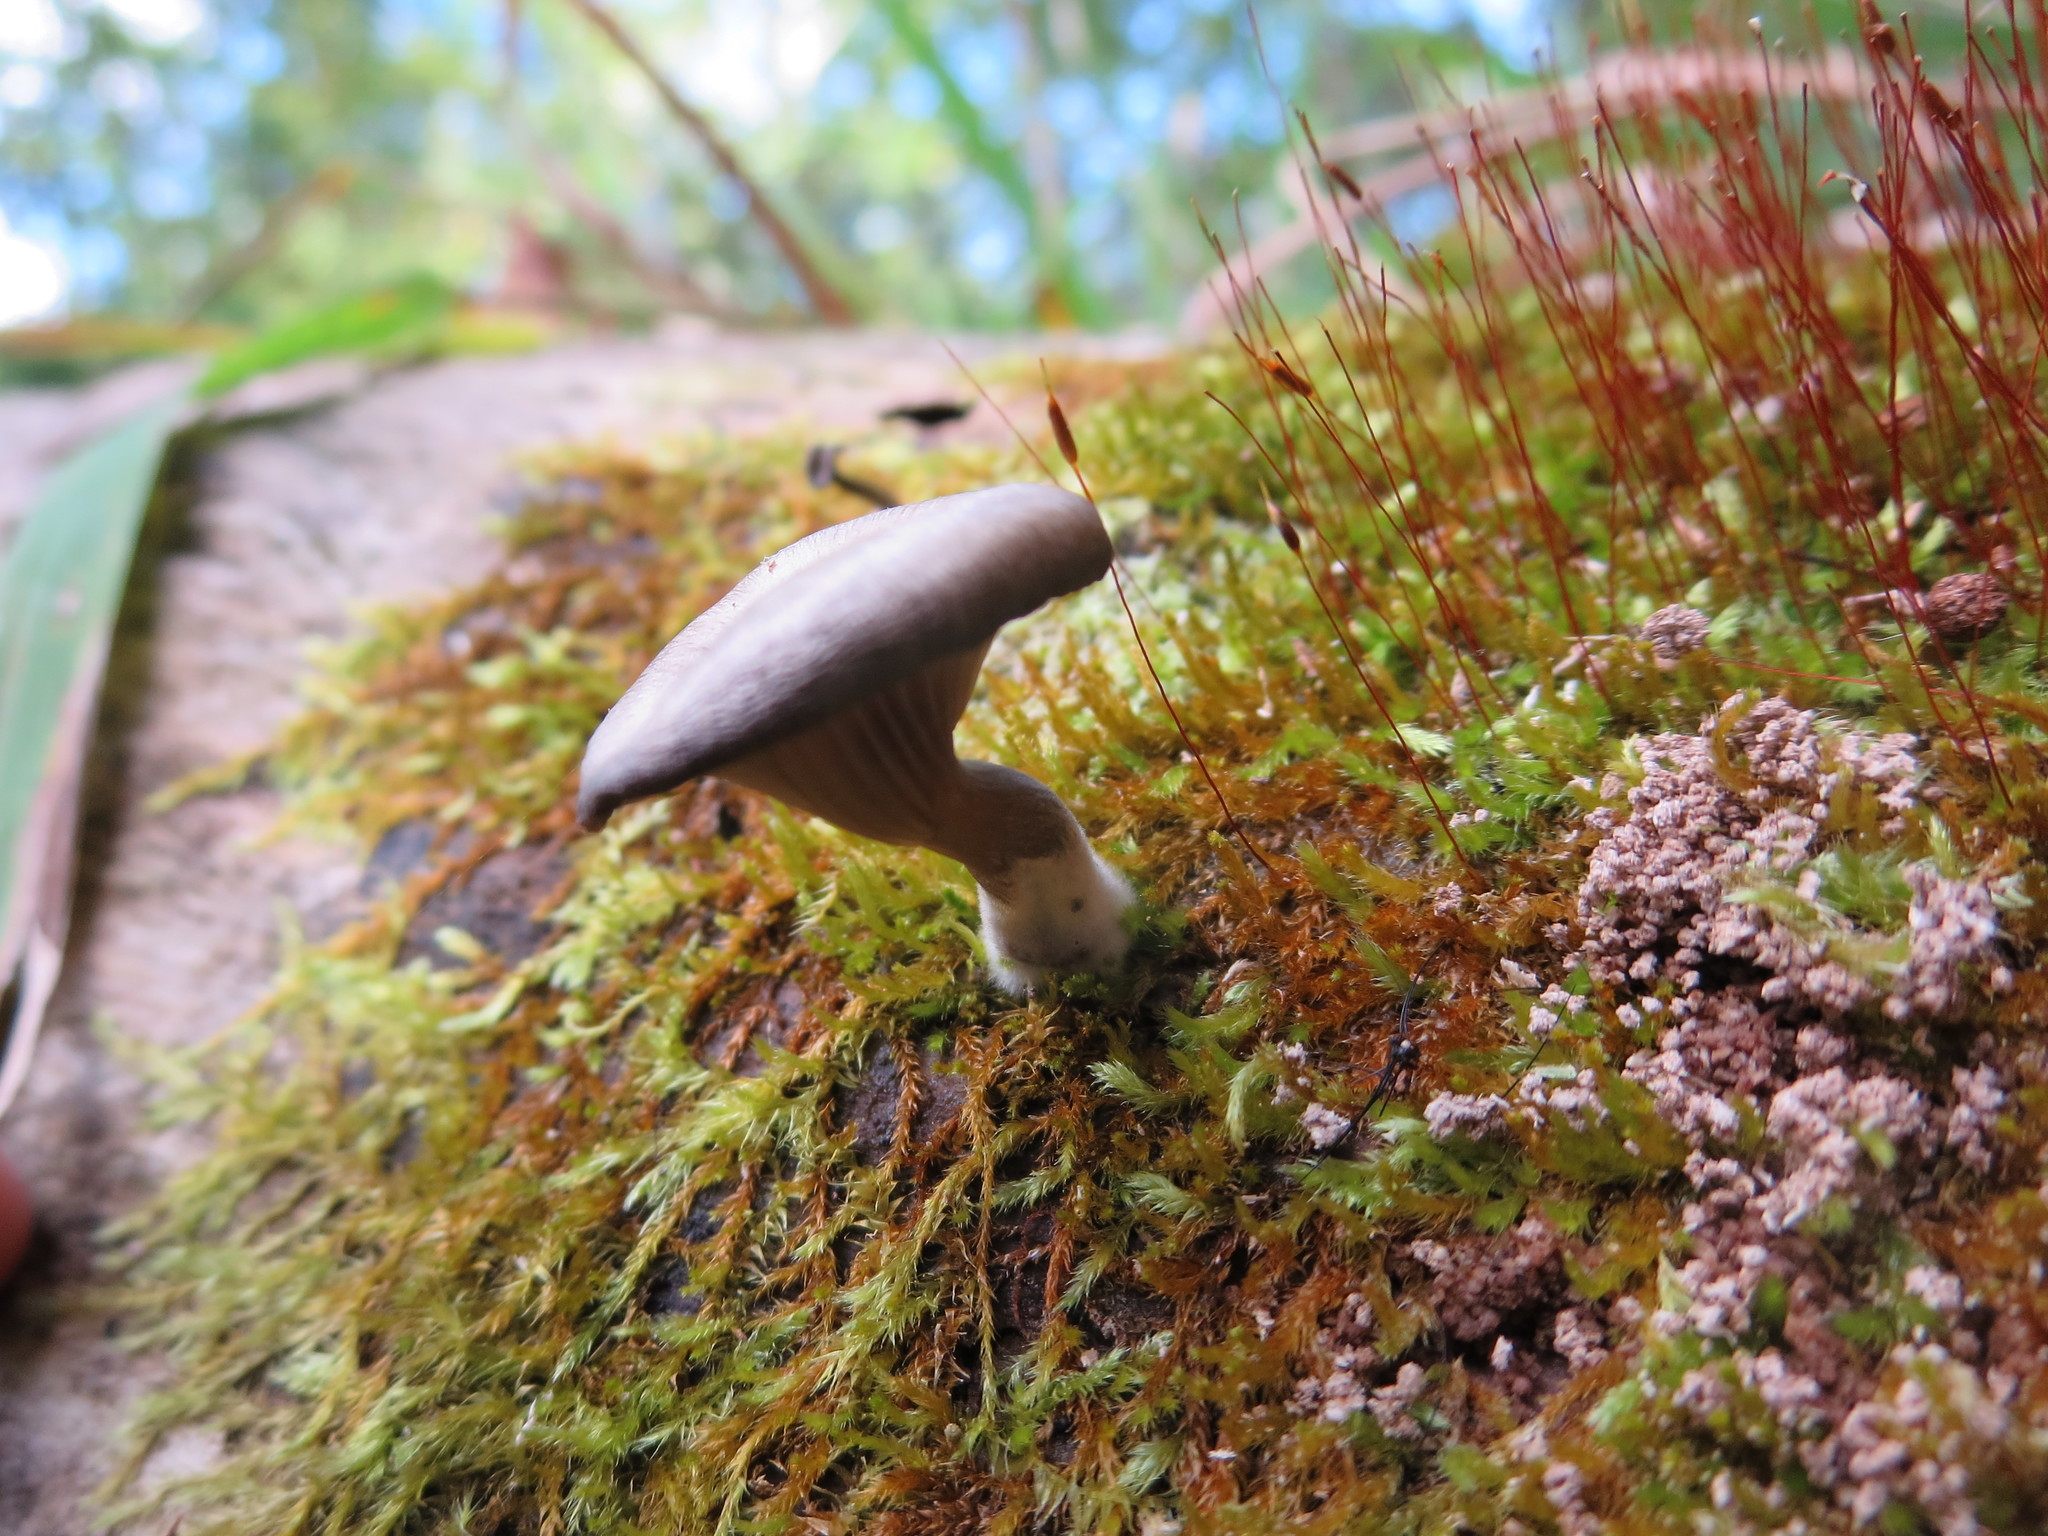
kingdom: Fungi
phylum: Basidiomycota
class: Agaricomycetes
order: Agaricales
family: Pseudoclitocybaceae
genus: Pseudoclitocybe
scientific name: Pseudoclitocybe cyathiformis
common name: Goblet
